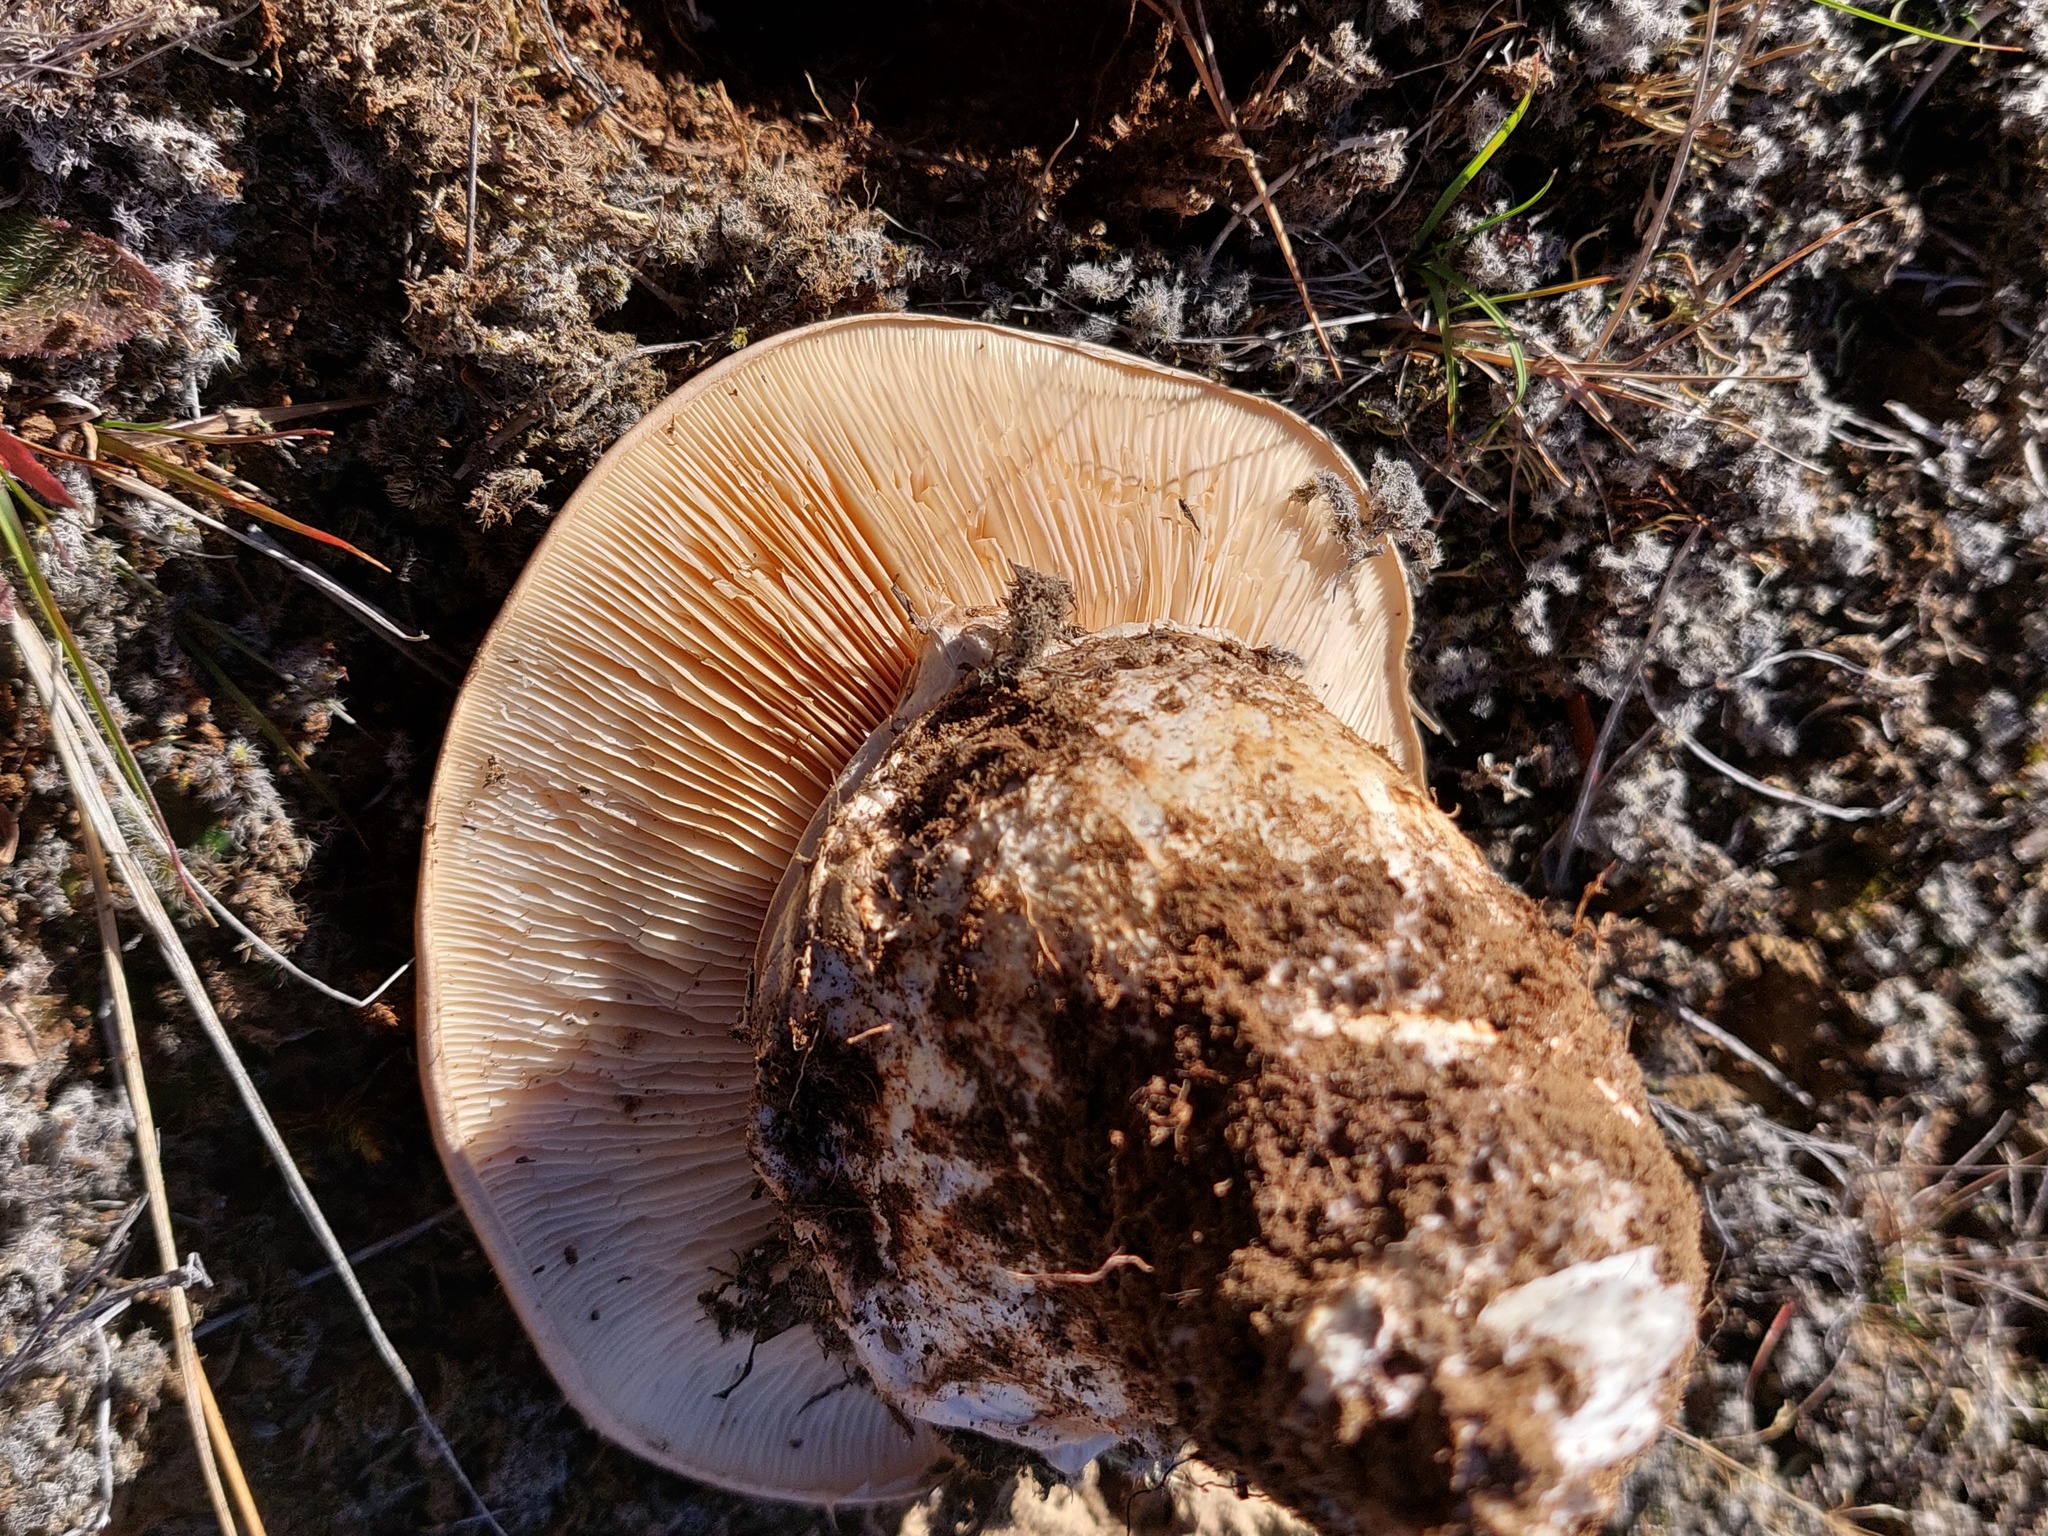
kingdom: Fungi
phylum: Basidiomycota
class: Agaricomycetes
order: Agaricales
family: Cortinariaceae
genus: Austrocortinarius
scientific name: Austrocortinarius australiensis
